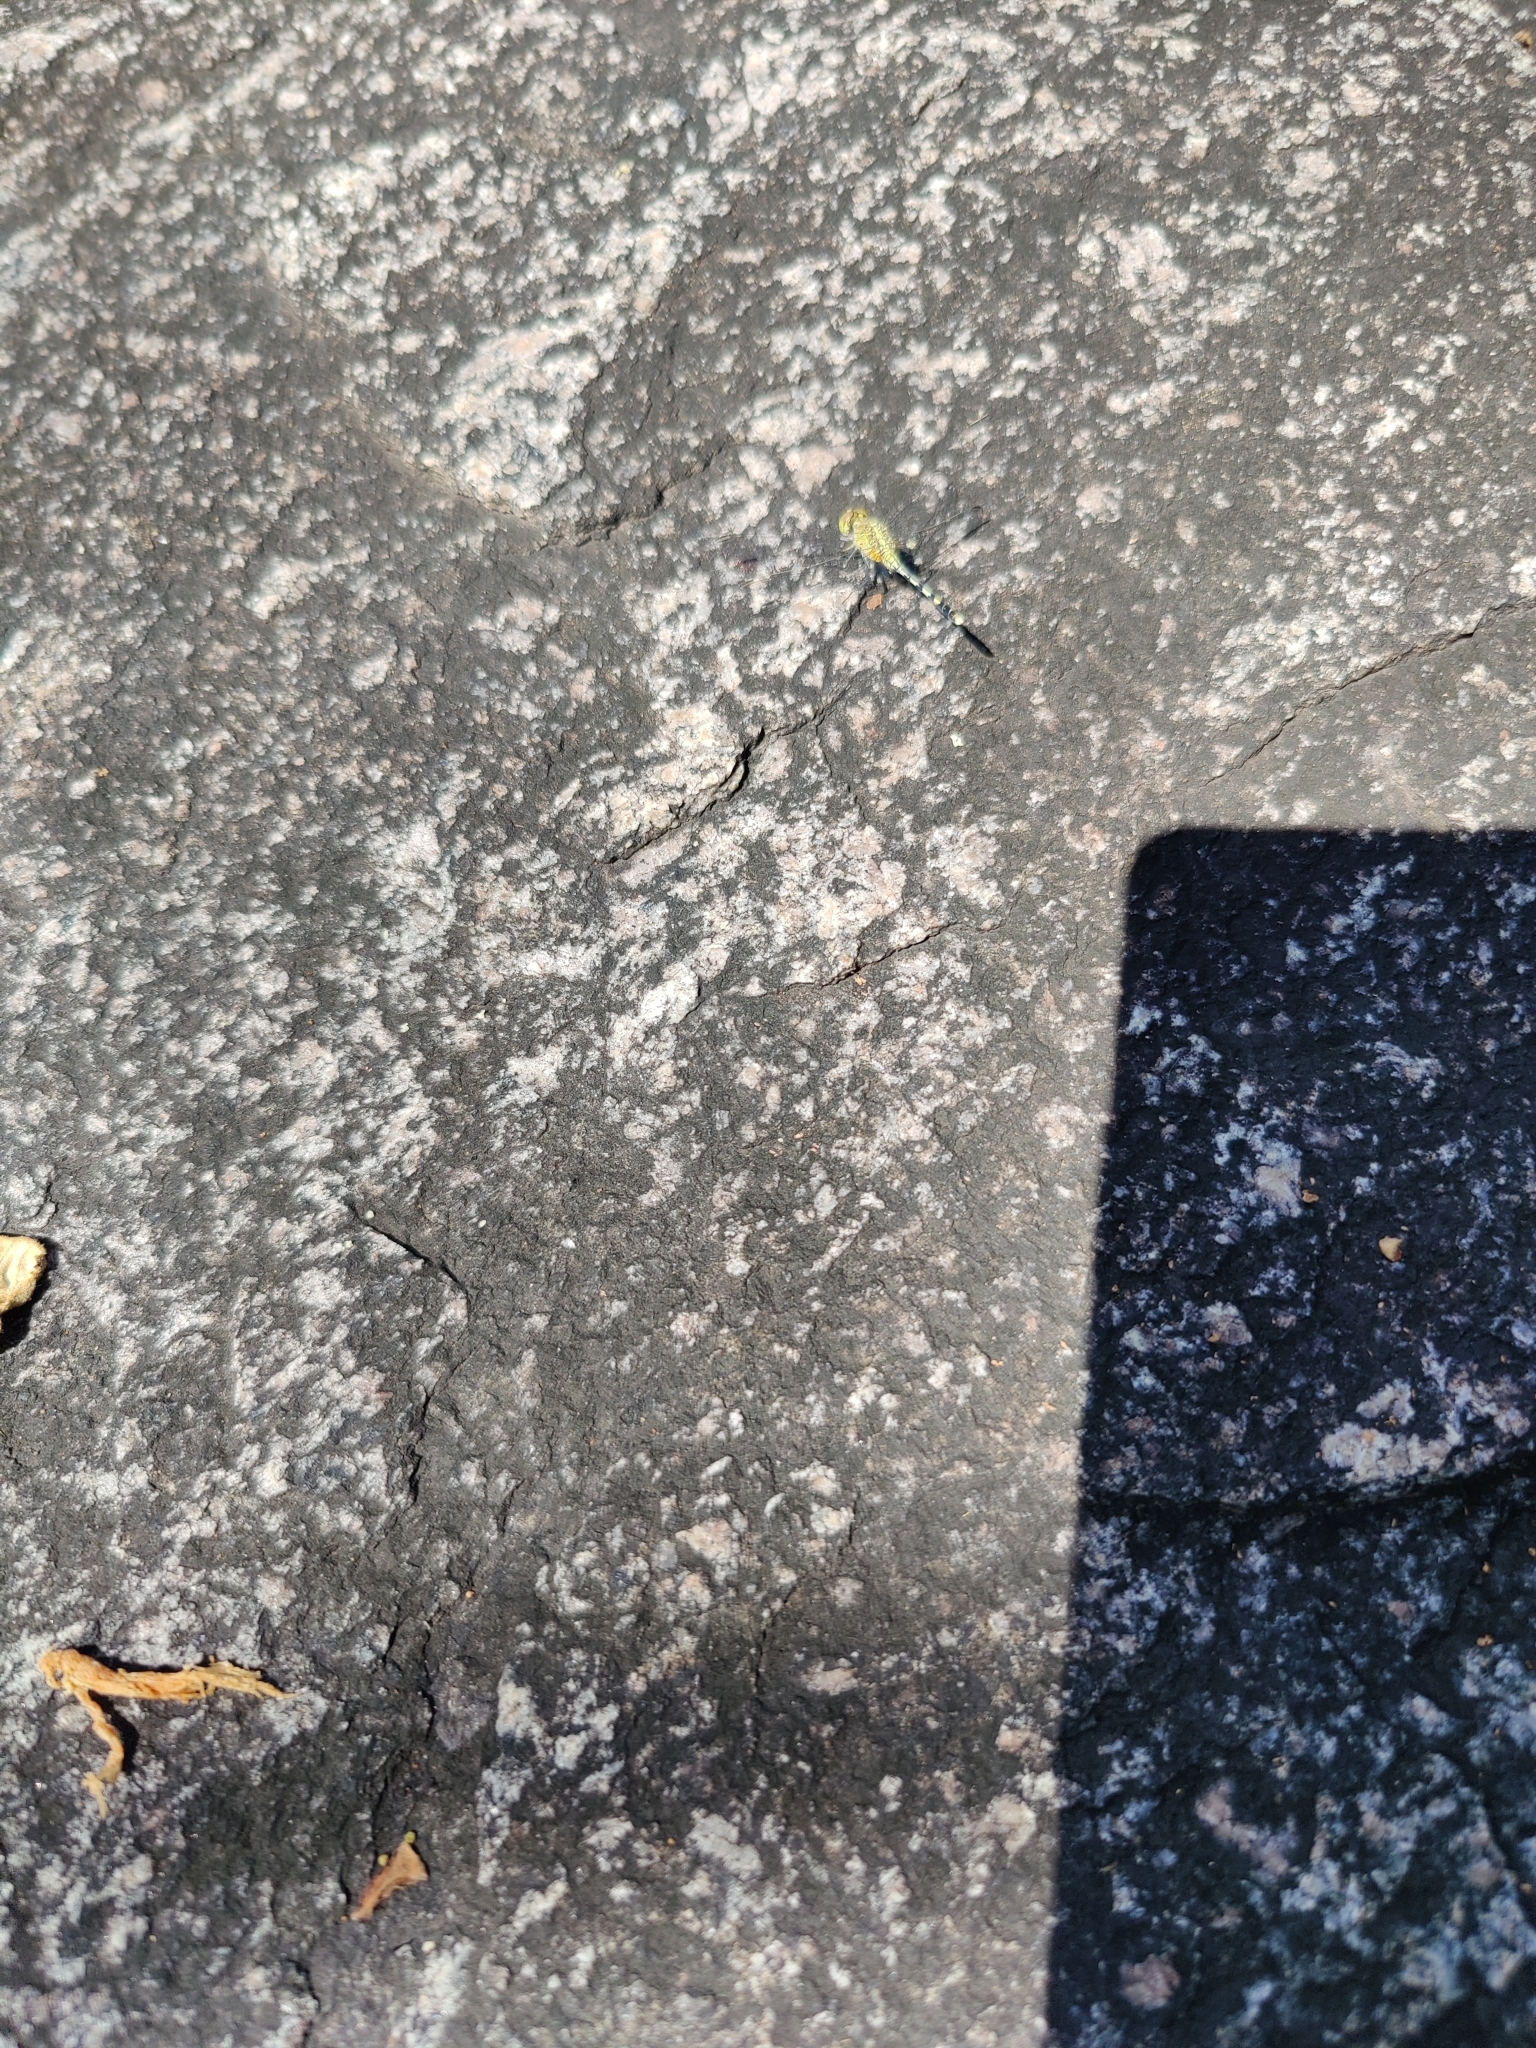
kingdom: Animalia
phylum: Arthropoda
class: Insecta
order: Odonata
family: Libellulidae
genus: Diplacodes
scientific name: Diplacodes trivialis
